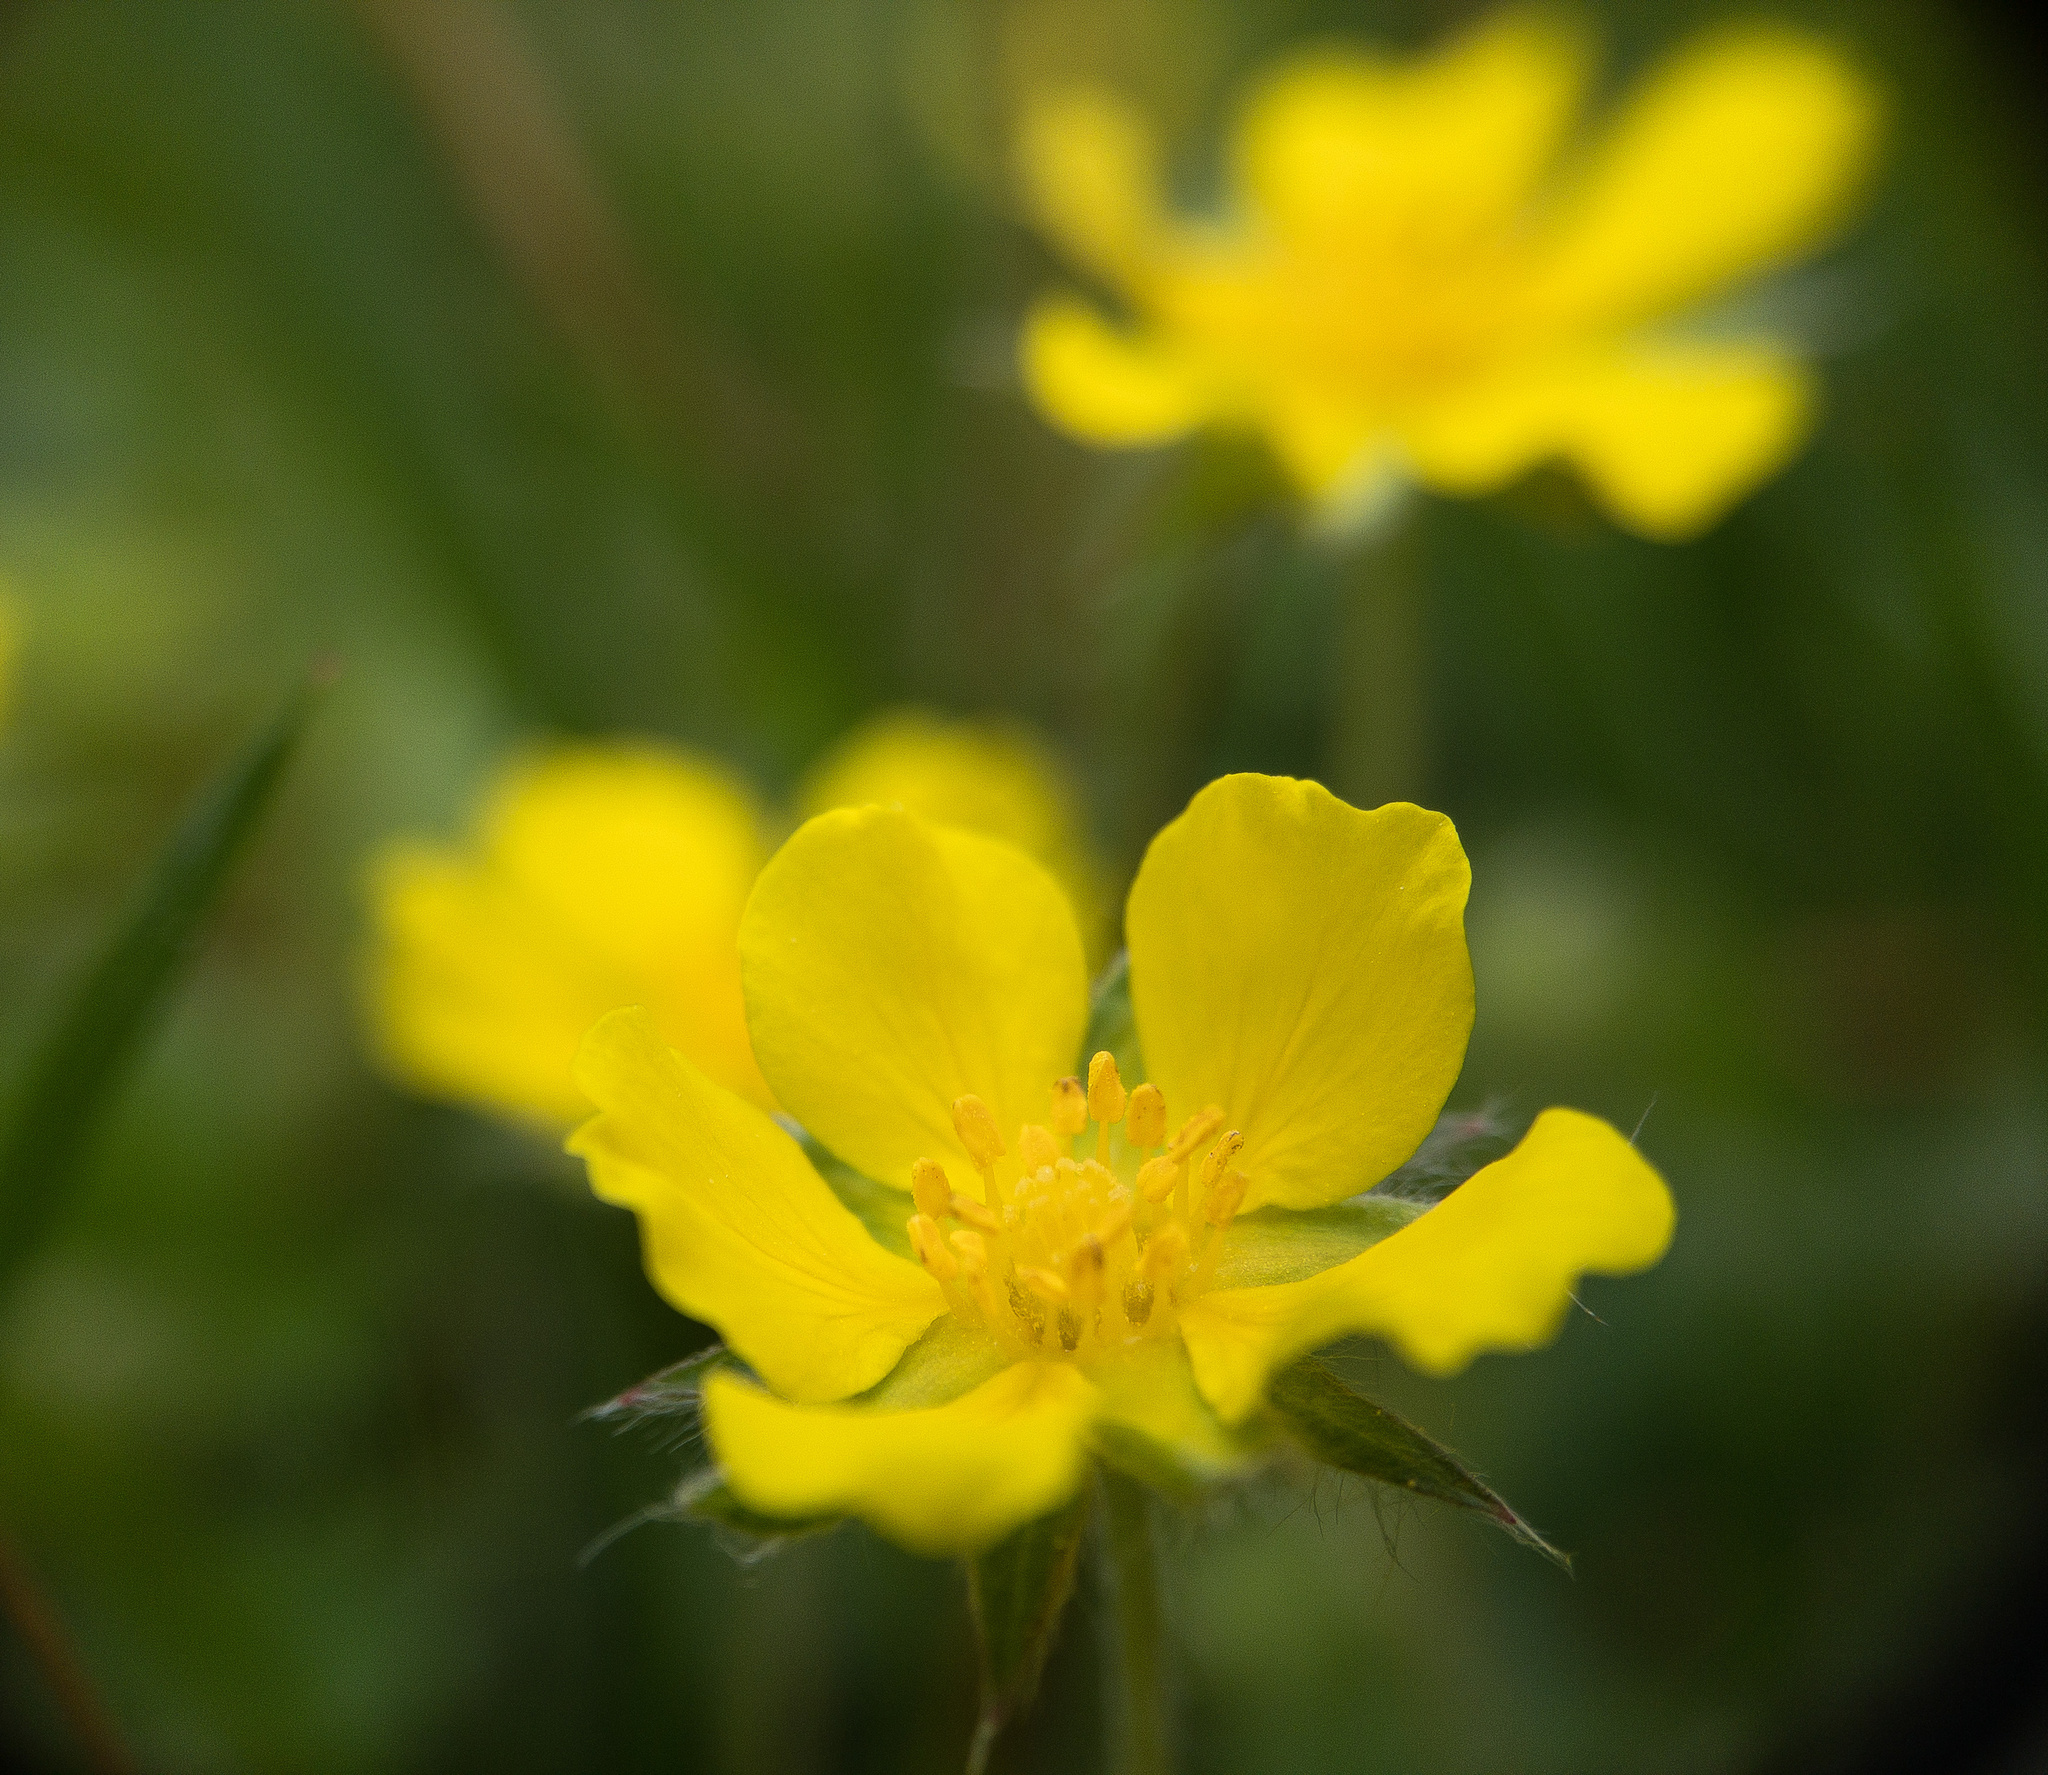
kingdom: Plantae
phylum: Tracheophyta
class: Magnoliopsida
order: Rosales
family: Rosaceae
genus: Potentilla
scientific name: Potentilla canadensis
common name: Canada cinquefoil
